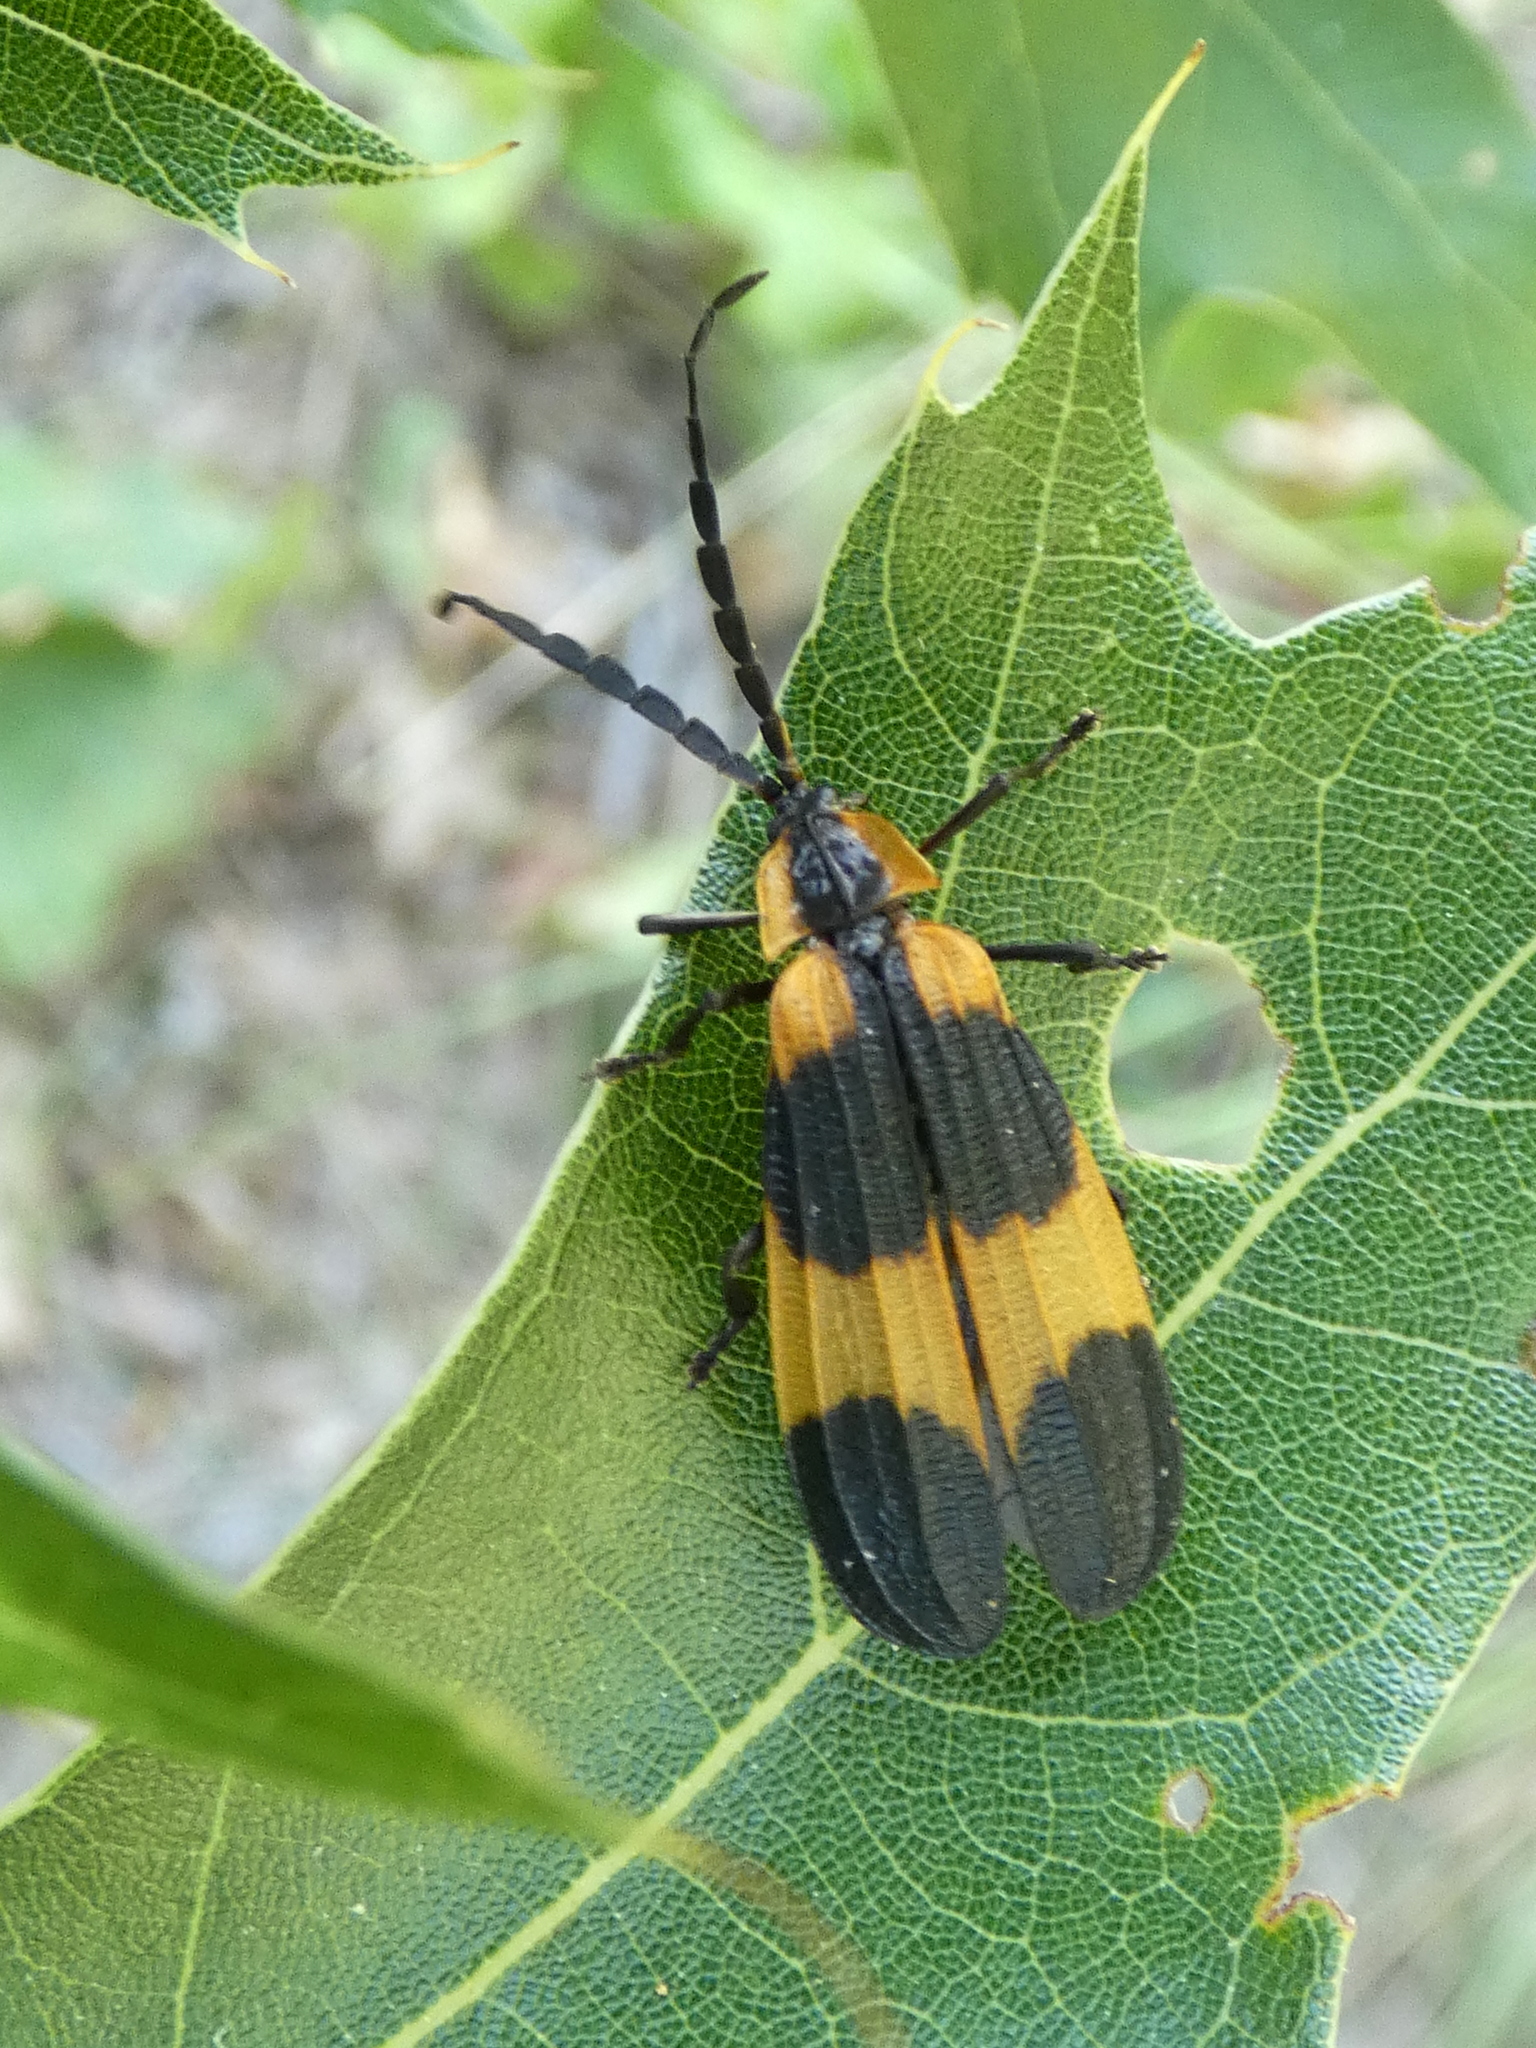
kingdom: Animalia
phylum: Arthropoda
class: Insecta
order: Coleoptera
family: Lycidae
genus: Calopteron
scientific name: Calopteron reticulatum
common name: Banded net-winged beetle
